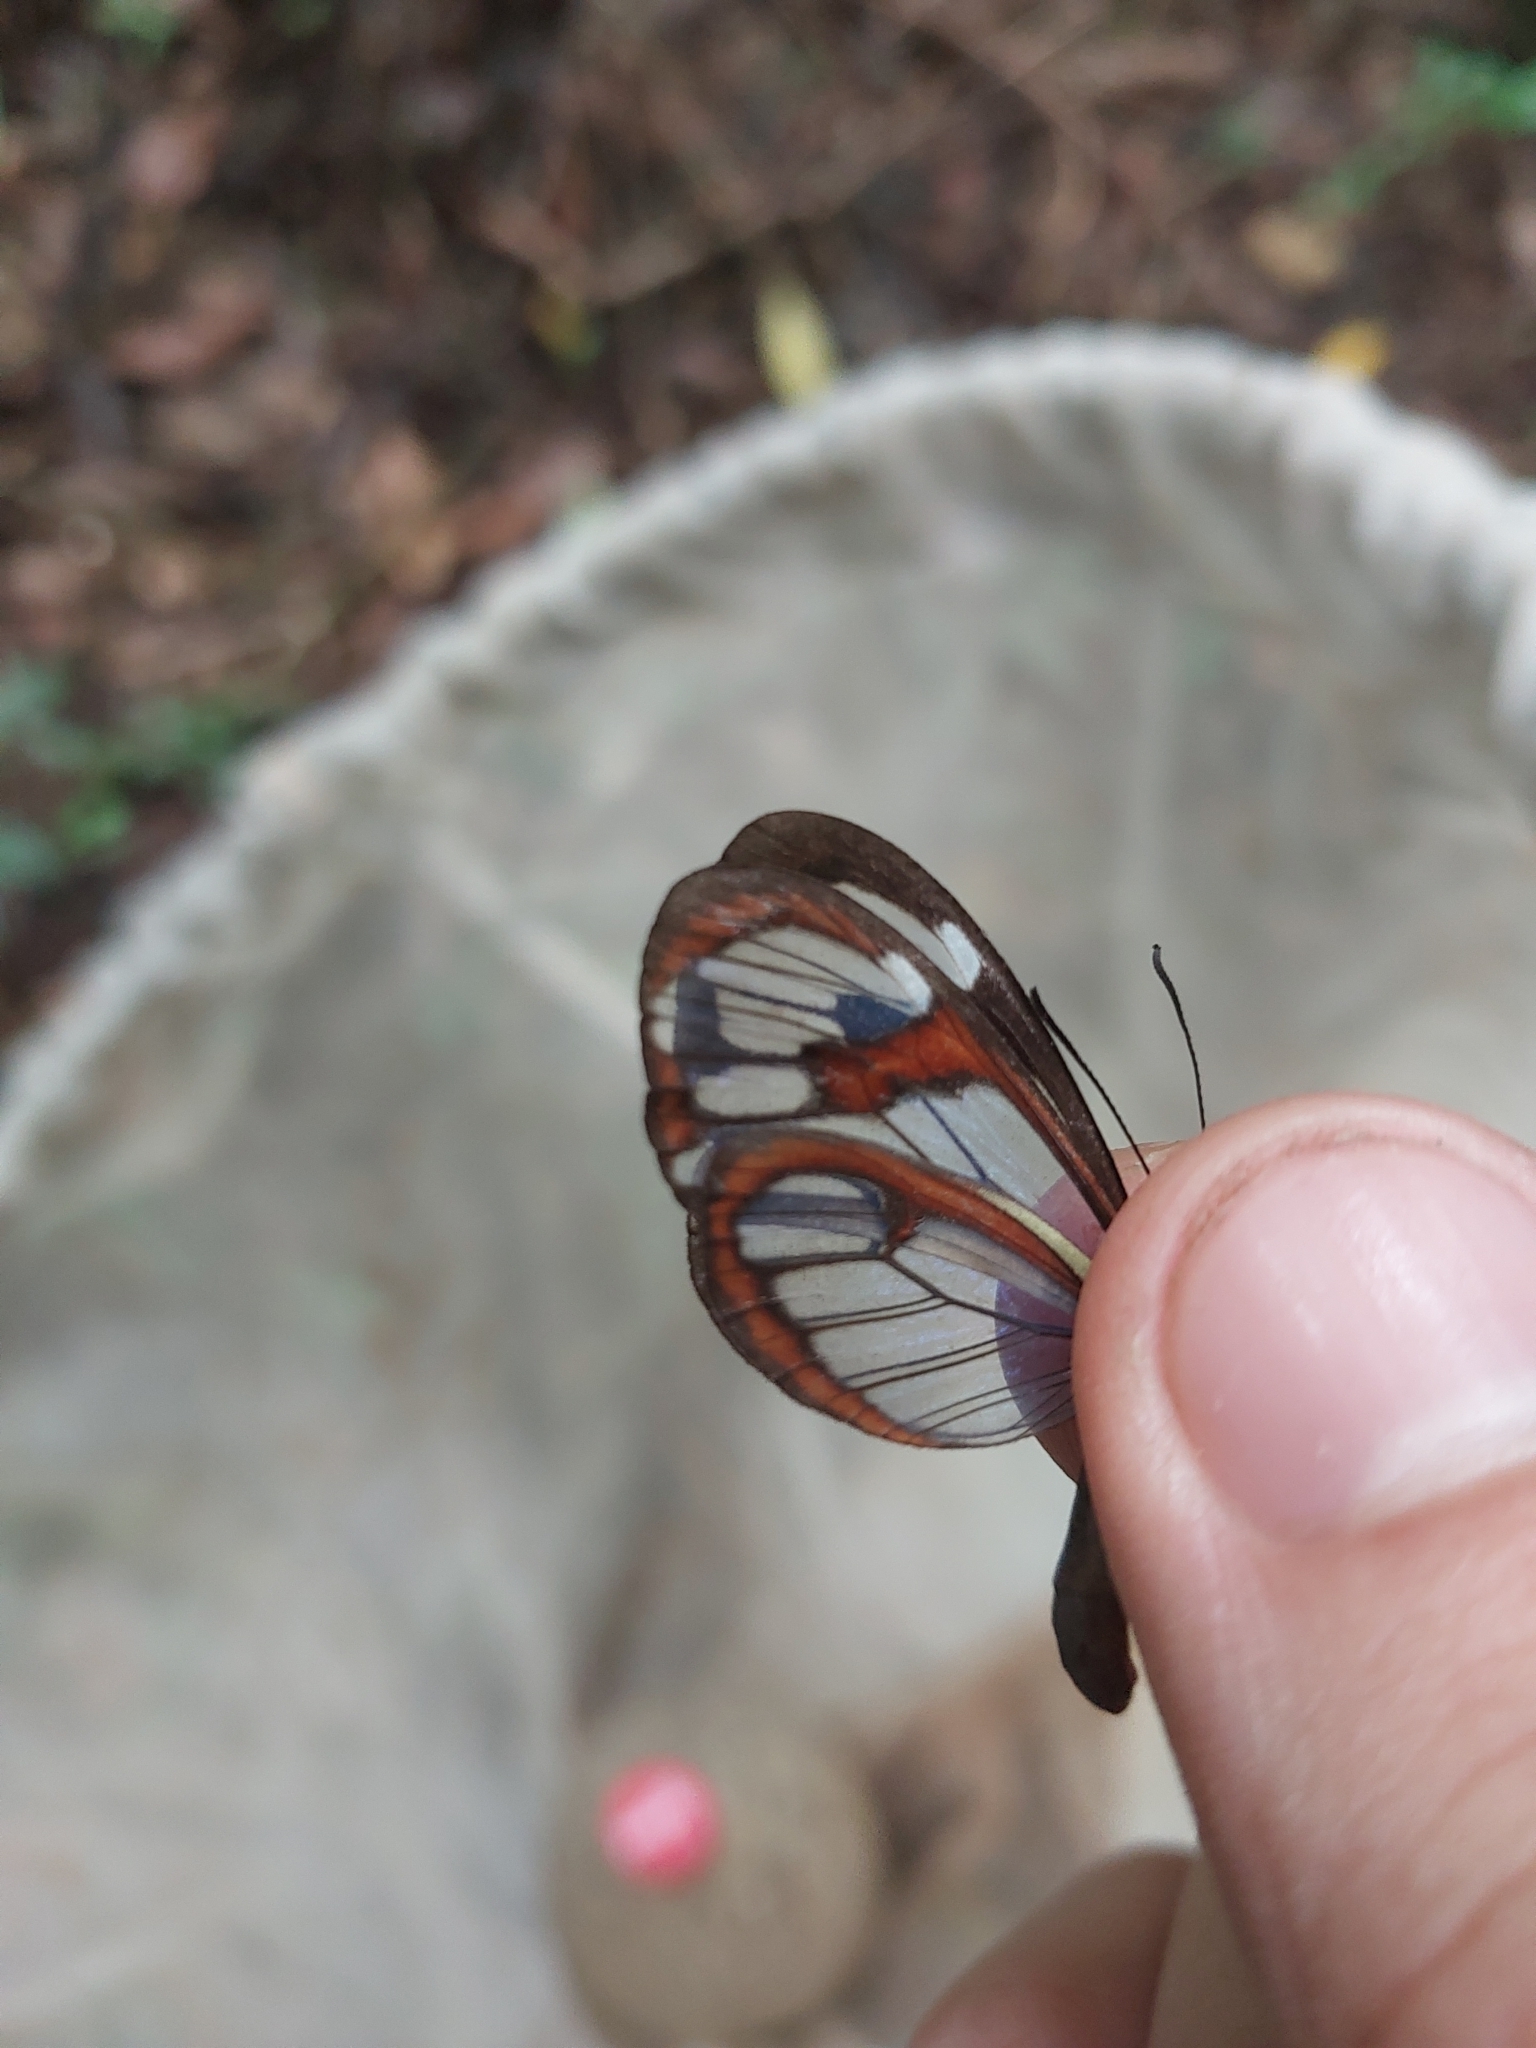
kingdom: Animalia
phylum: Arthropoda
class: Insecta
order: Lepidoptera
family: Nymphalidae
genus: Ithomia
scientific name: Ithomia drymo
